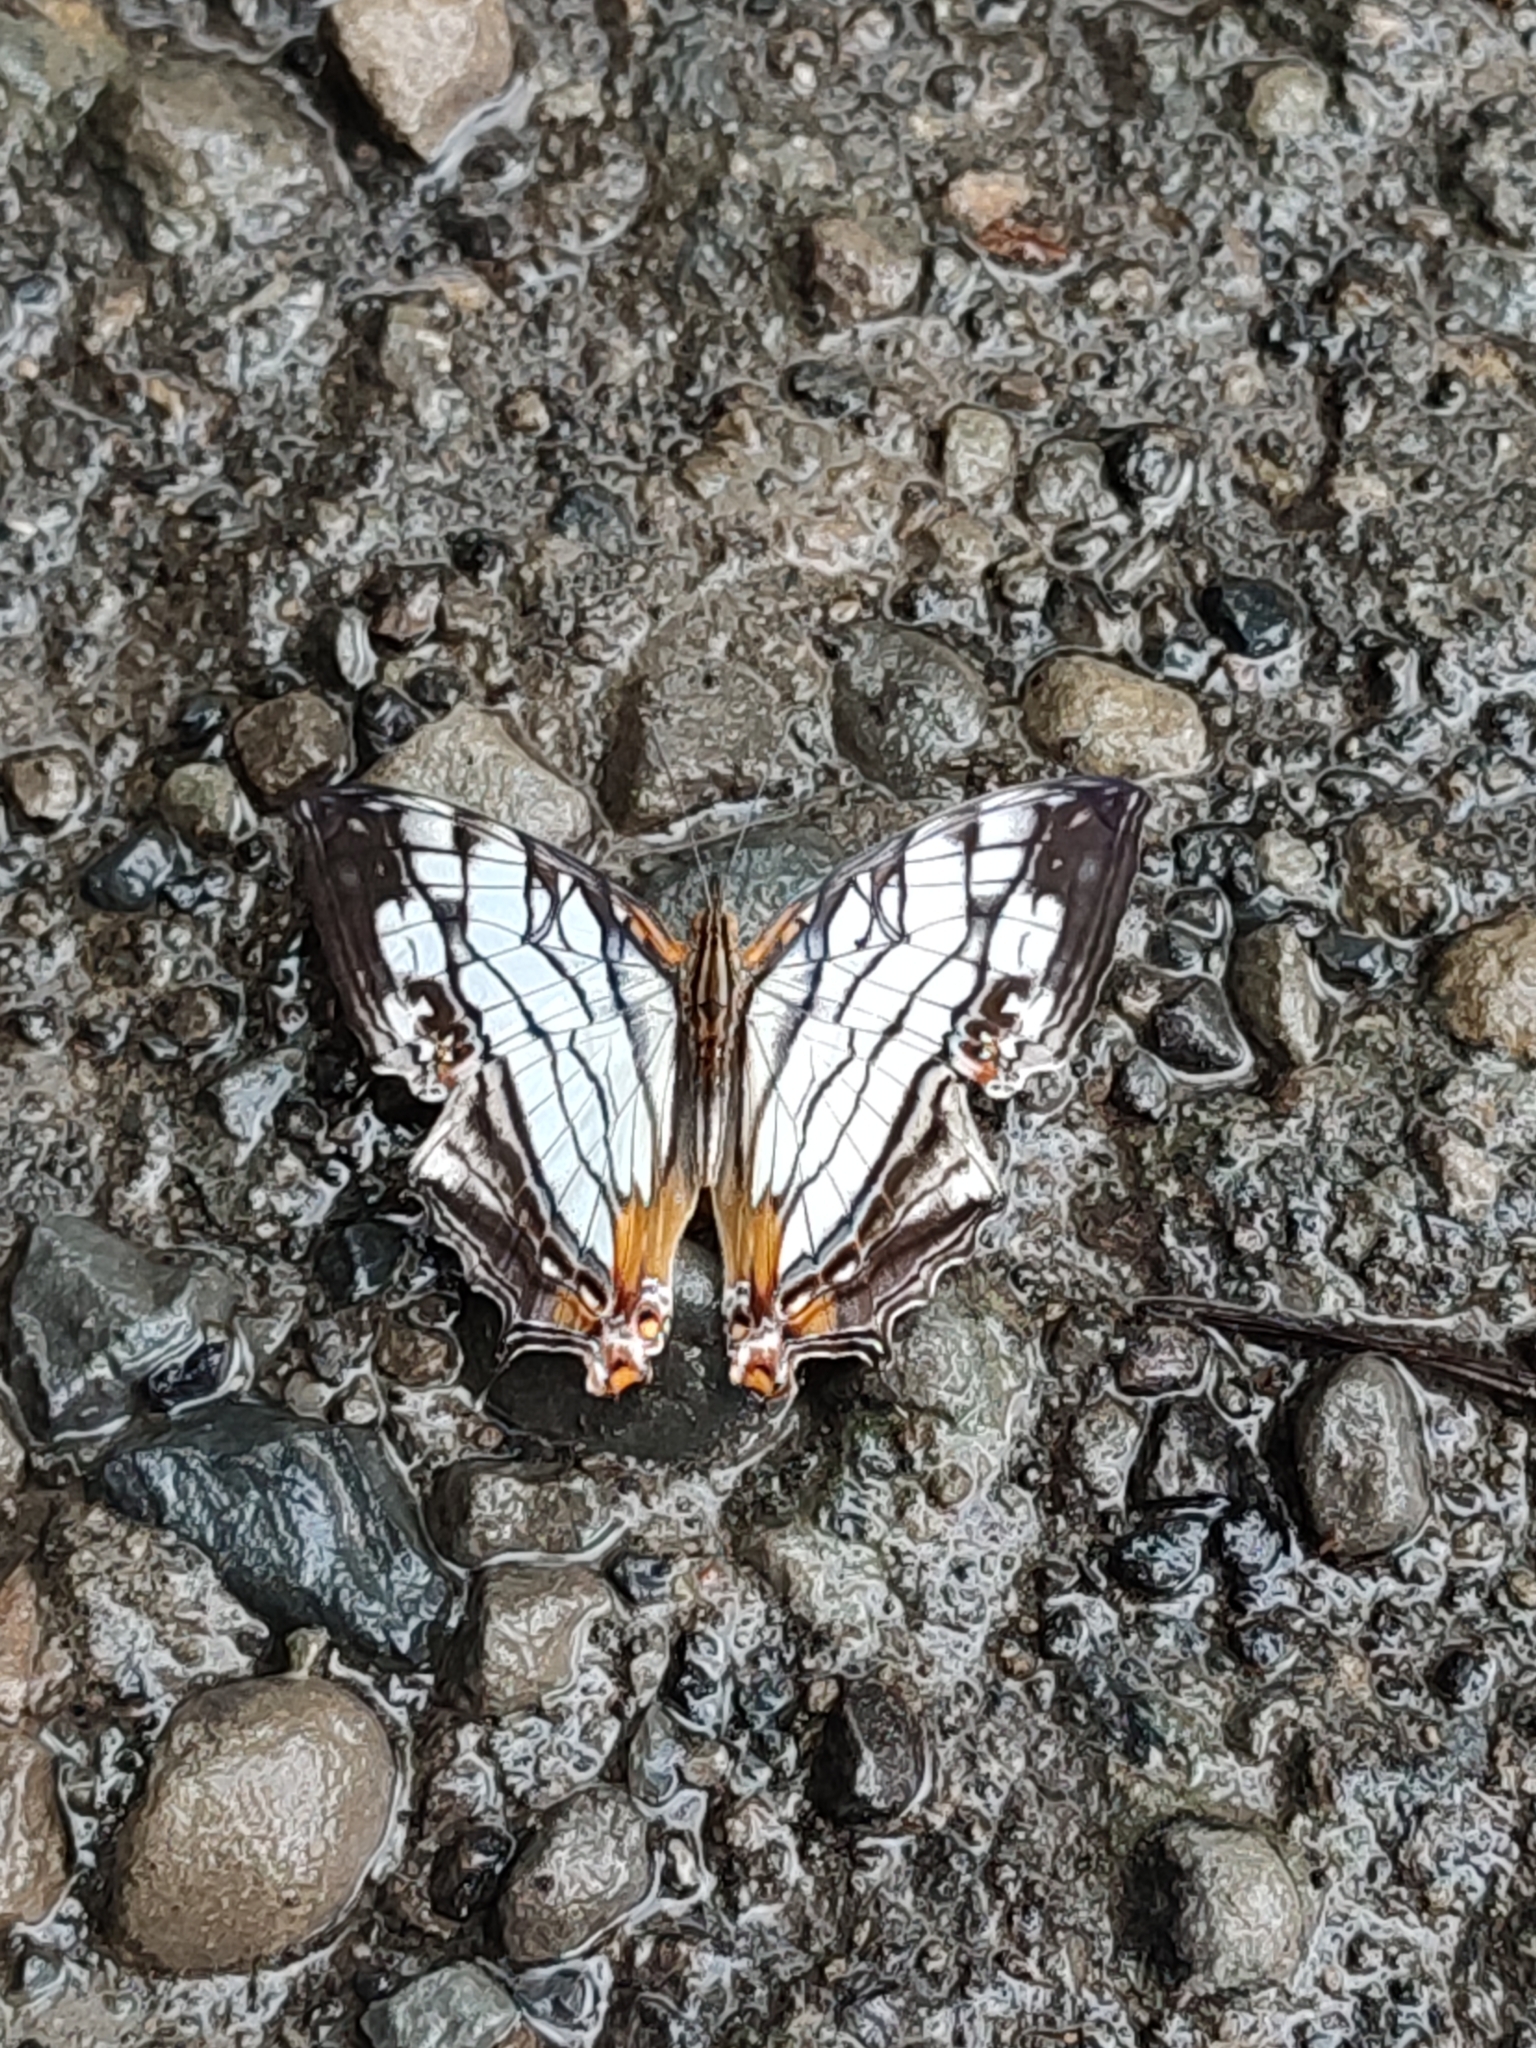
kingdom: Animalia
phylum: Arthropoda
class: Insecta
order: Lepidoptera
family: Nymphalidae
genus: Cyrestis
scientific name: Cyrestis thyodamas
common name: Common mapwing
